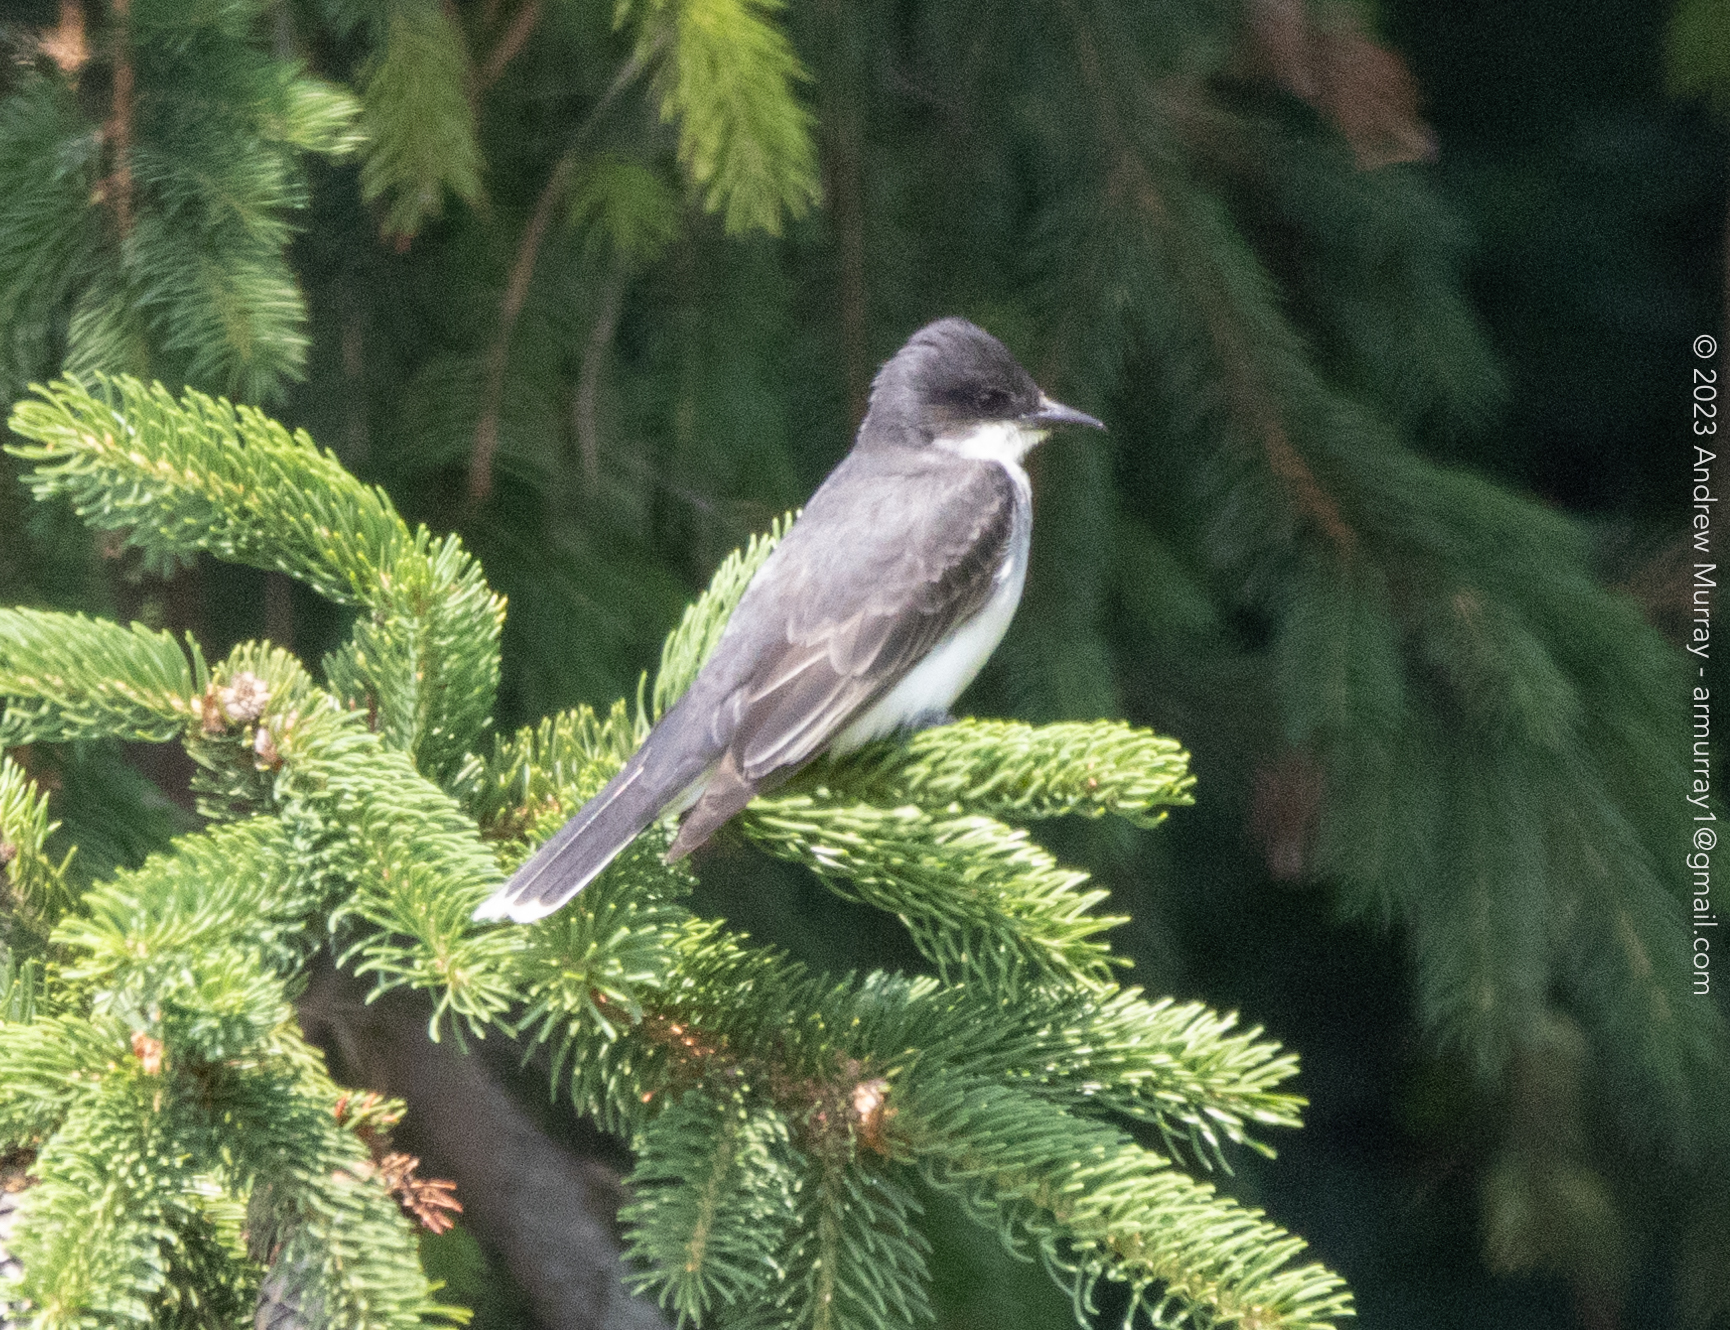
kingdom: Animalia
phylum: Chordata
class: Aves
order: Passeriformes
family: Tyrannidae
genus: Tyrannus
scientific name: Tyrannus tyrannus
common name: Eastern kingbird
